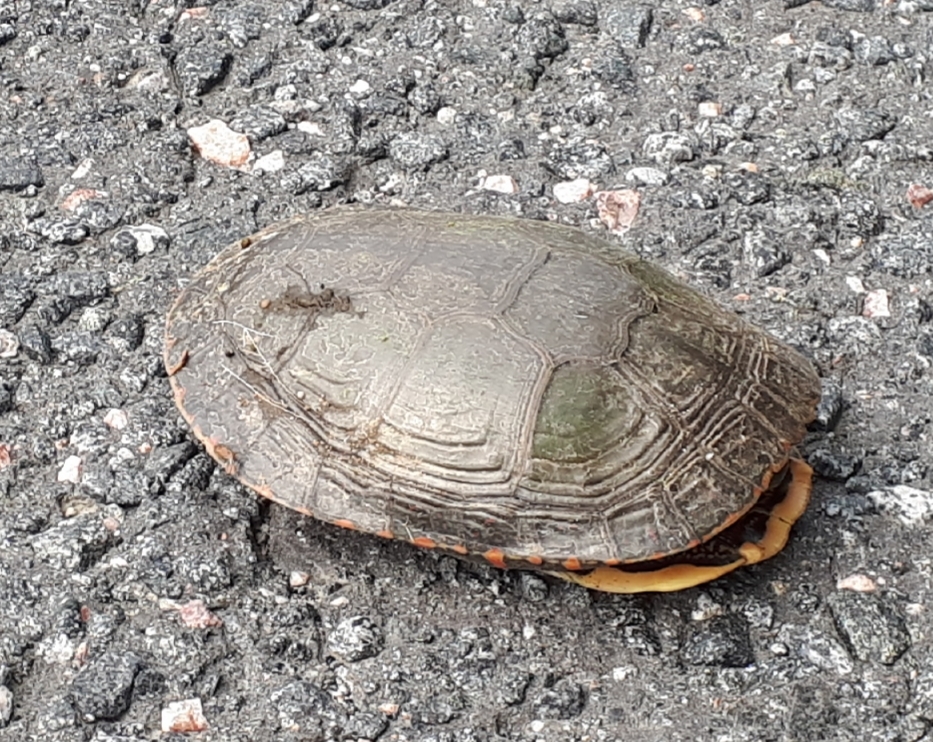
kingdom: Animalia
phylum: Chordata
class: Testudines
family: Emydidae
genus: Chrysemys
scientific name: Chrysemys picta
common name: Painted turtle
